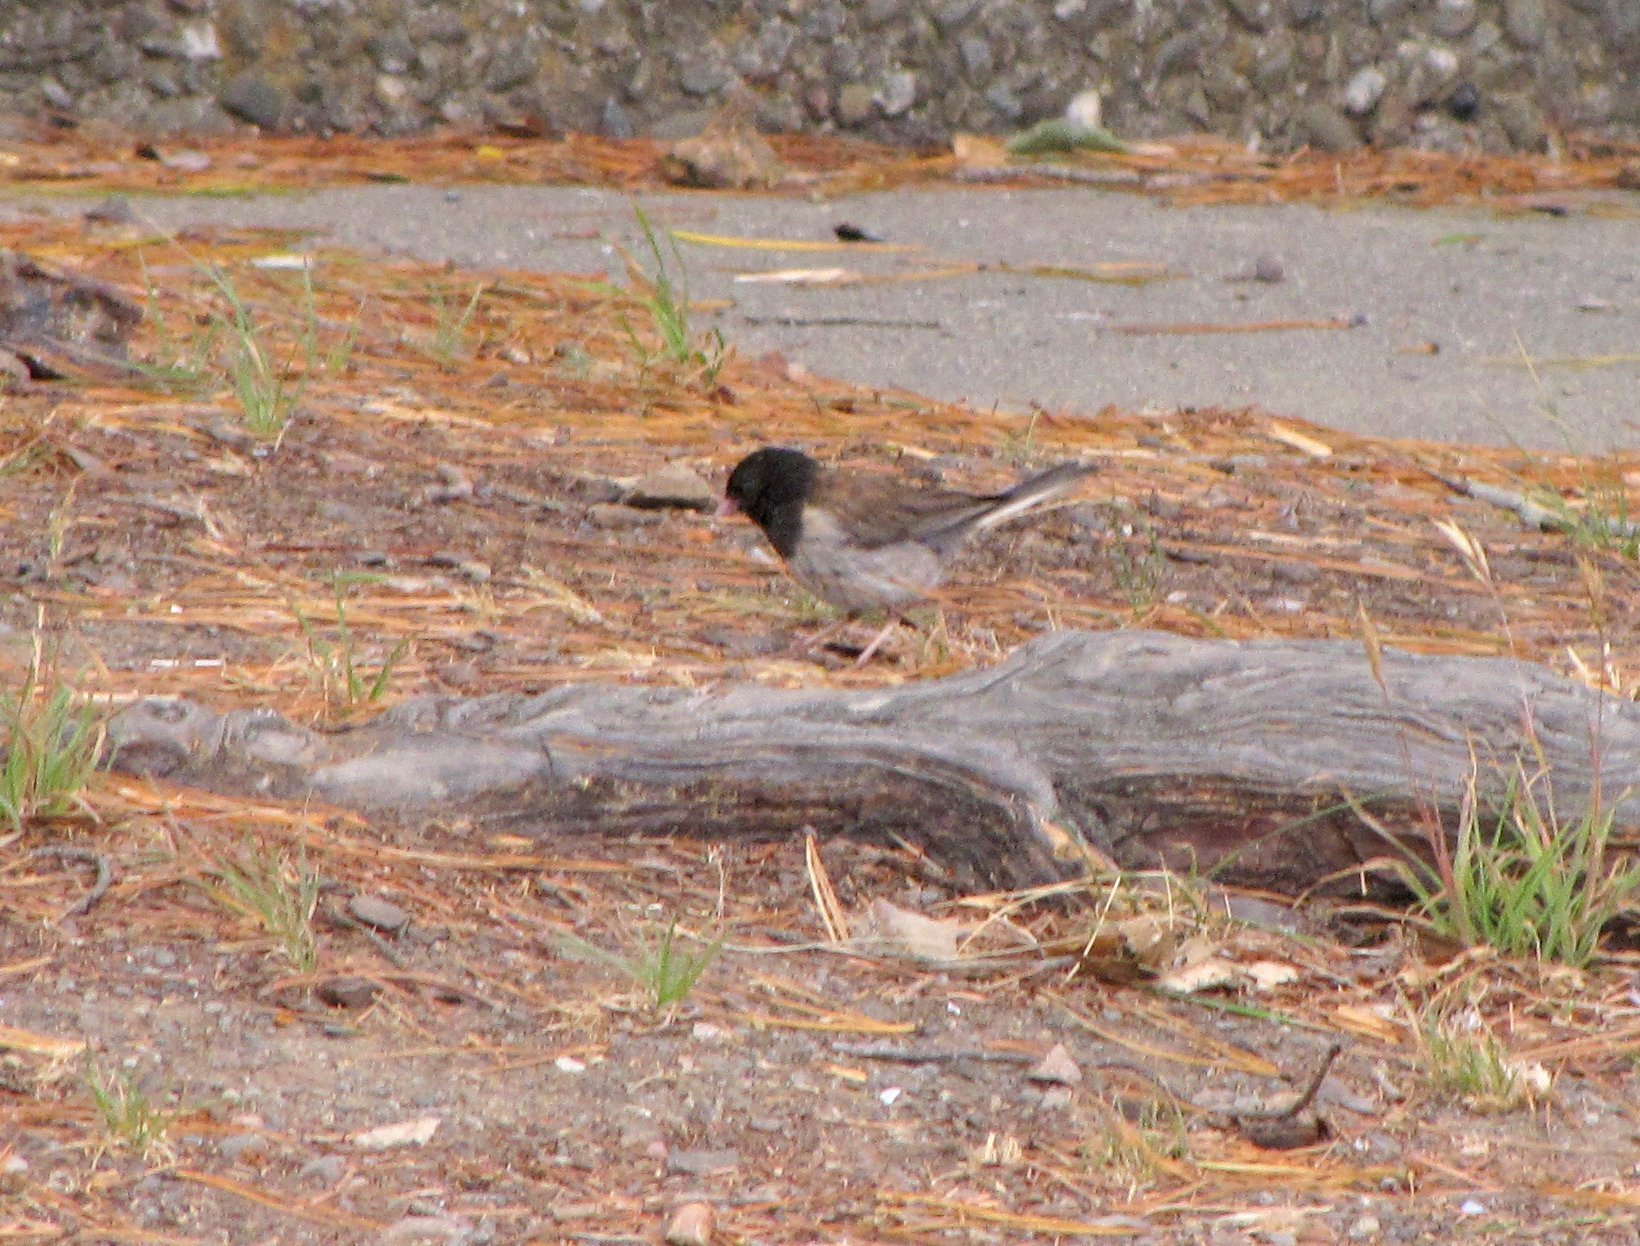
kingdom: Animalia
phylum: Chordata
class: Aves
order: Passeriformes
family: Passerellidae
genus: Junco
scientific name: Junco hyemalis
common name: Dark-eyed junco
